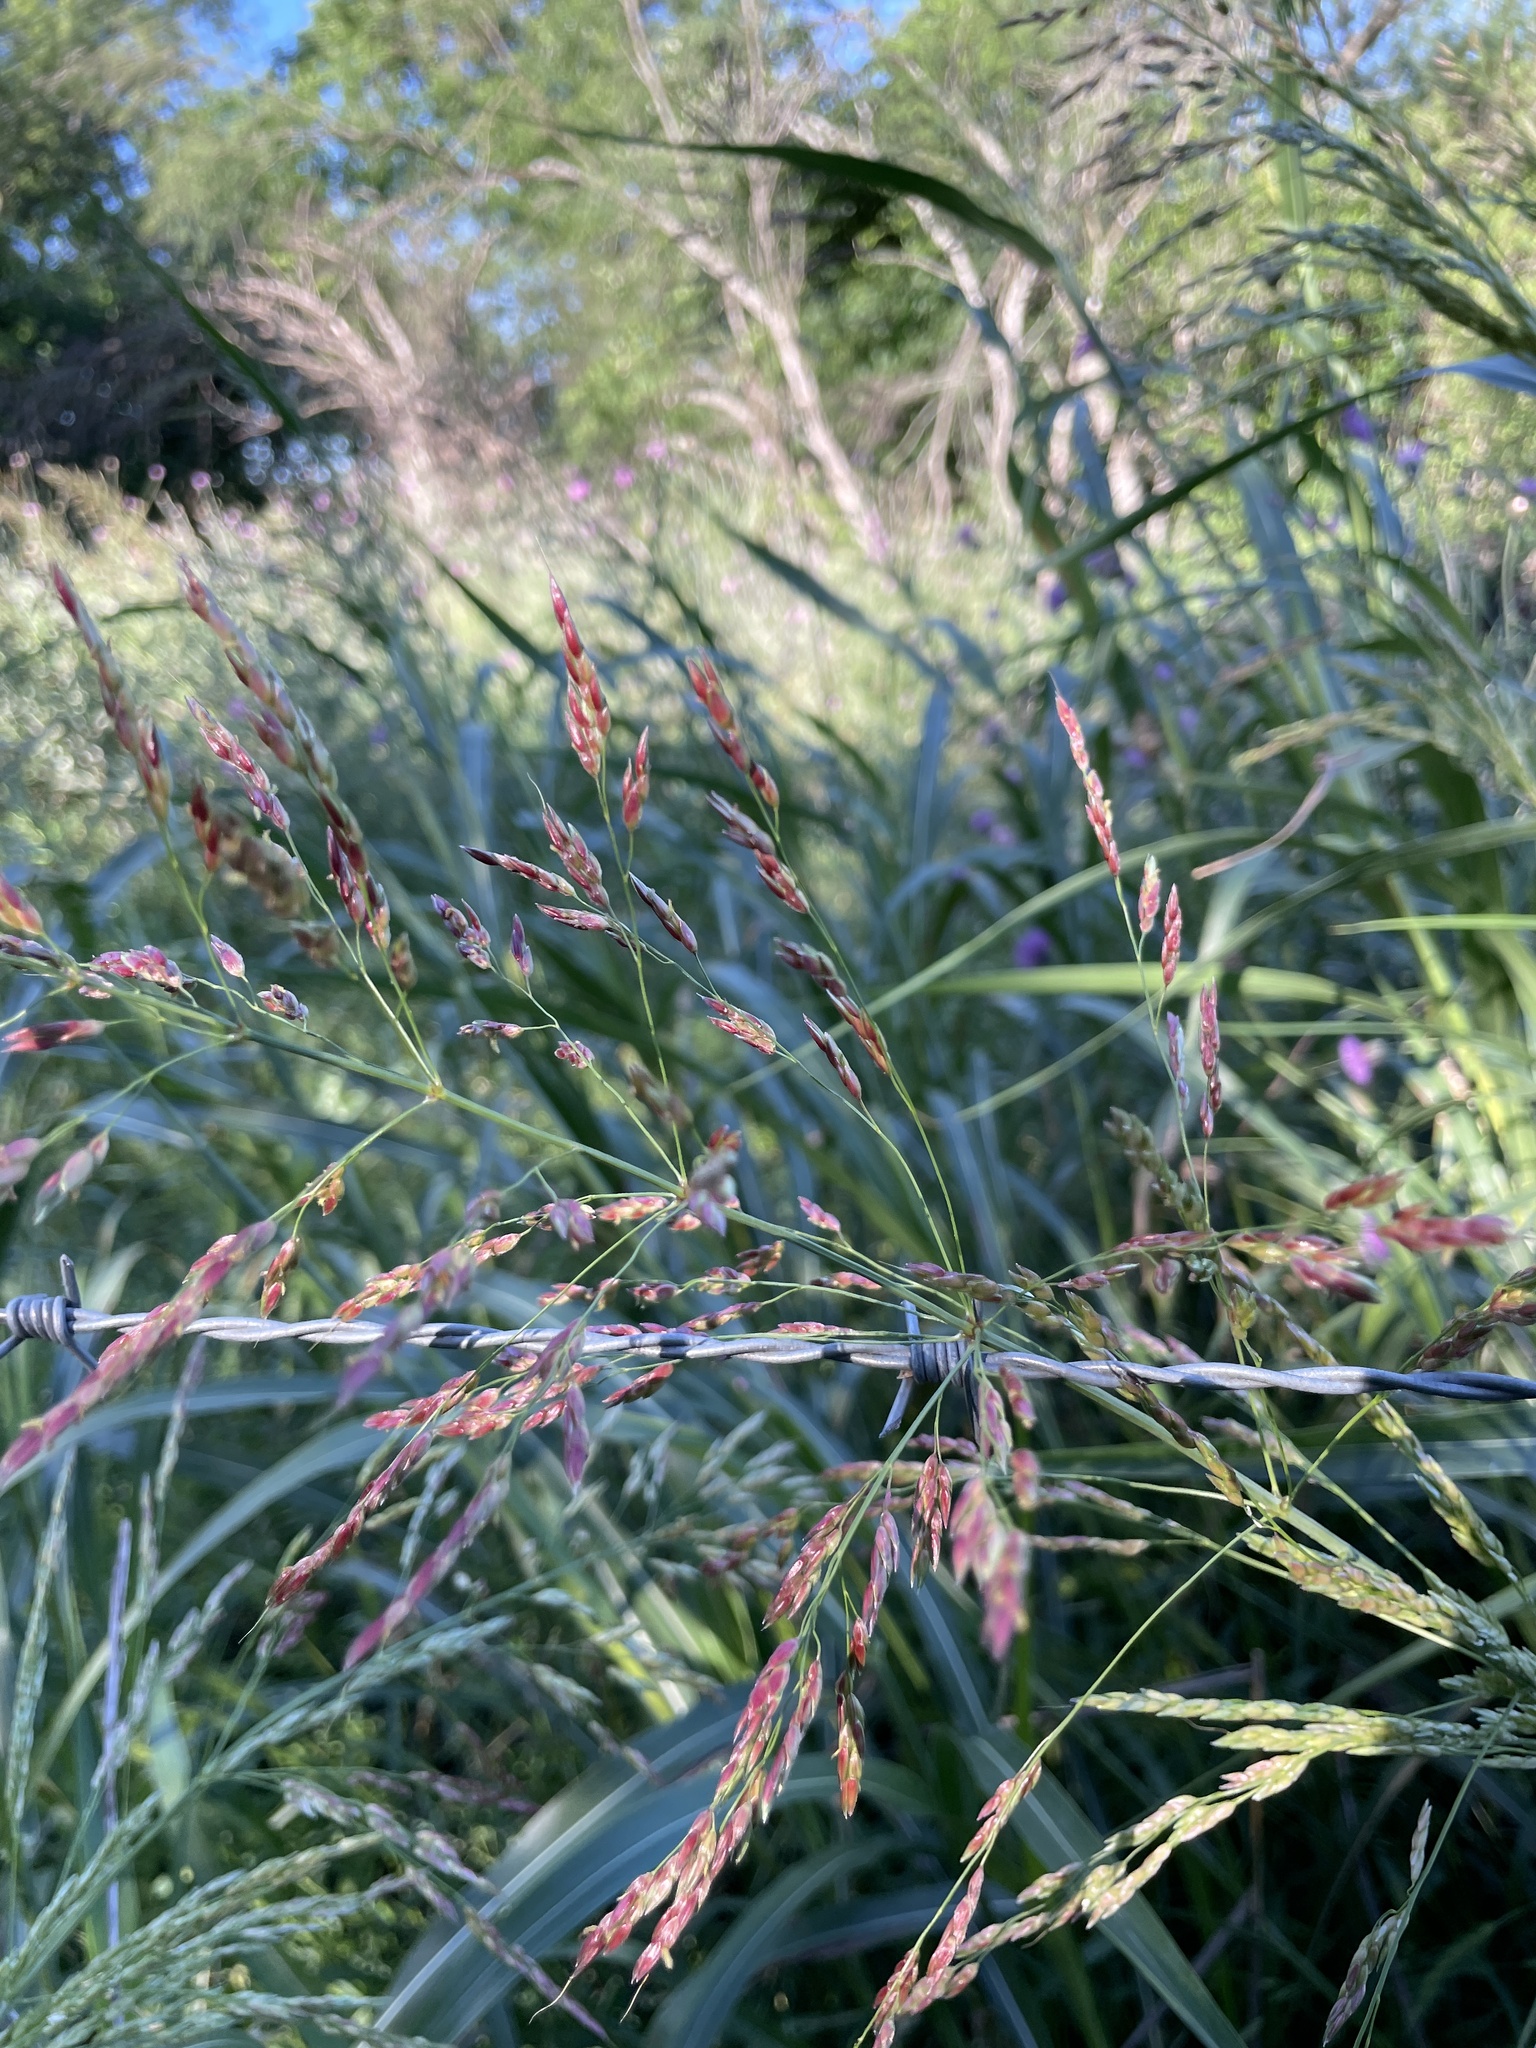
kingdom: Plantae
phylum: Tracheophyta
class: Liliopsida
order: Poales
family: Poaceae
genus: Sorghum
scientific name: Sorghum halepense
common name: Johnson-grass
